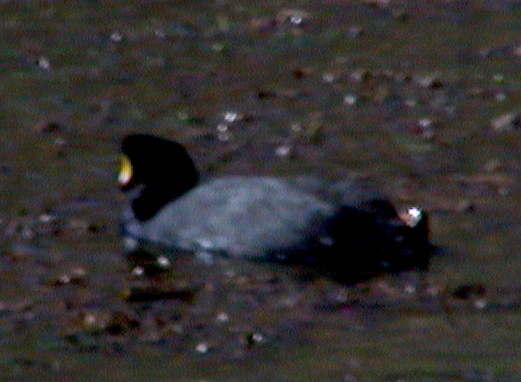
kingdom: Animalia
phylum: Chordata
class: Aves
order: Gruiformes
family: Rallidae
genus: Fulica
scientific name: Fulica gigantea
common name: Giant coot
